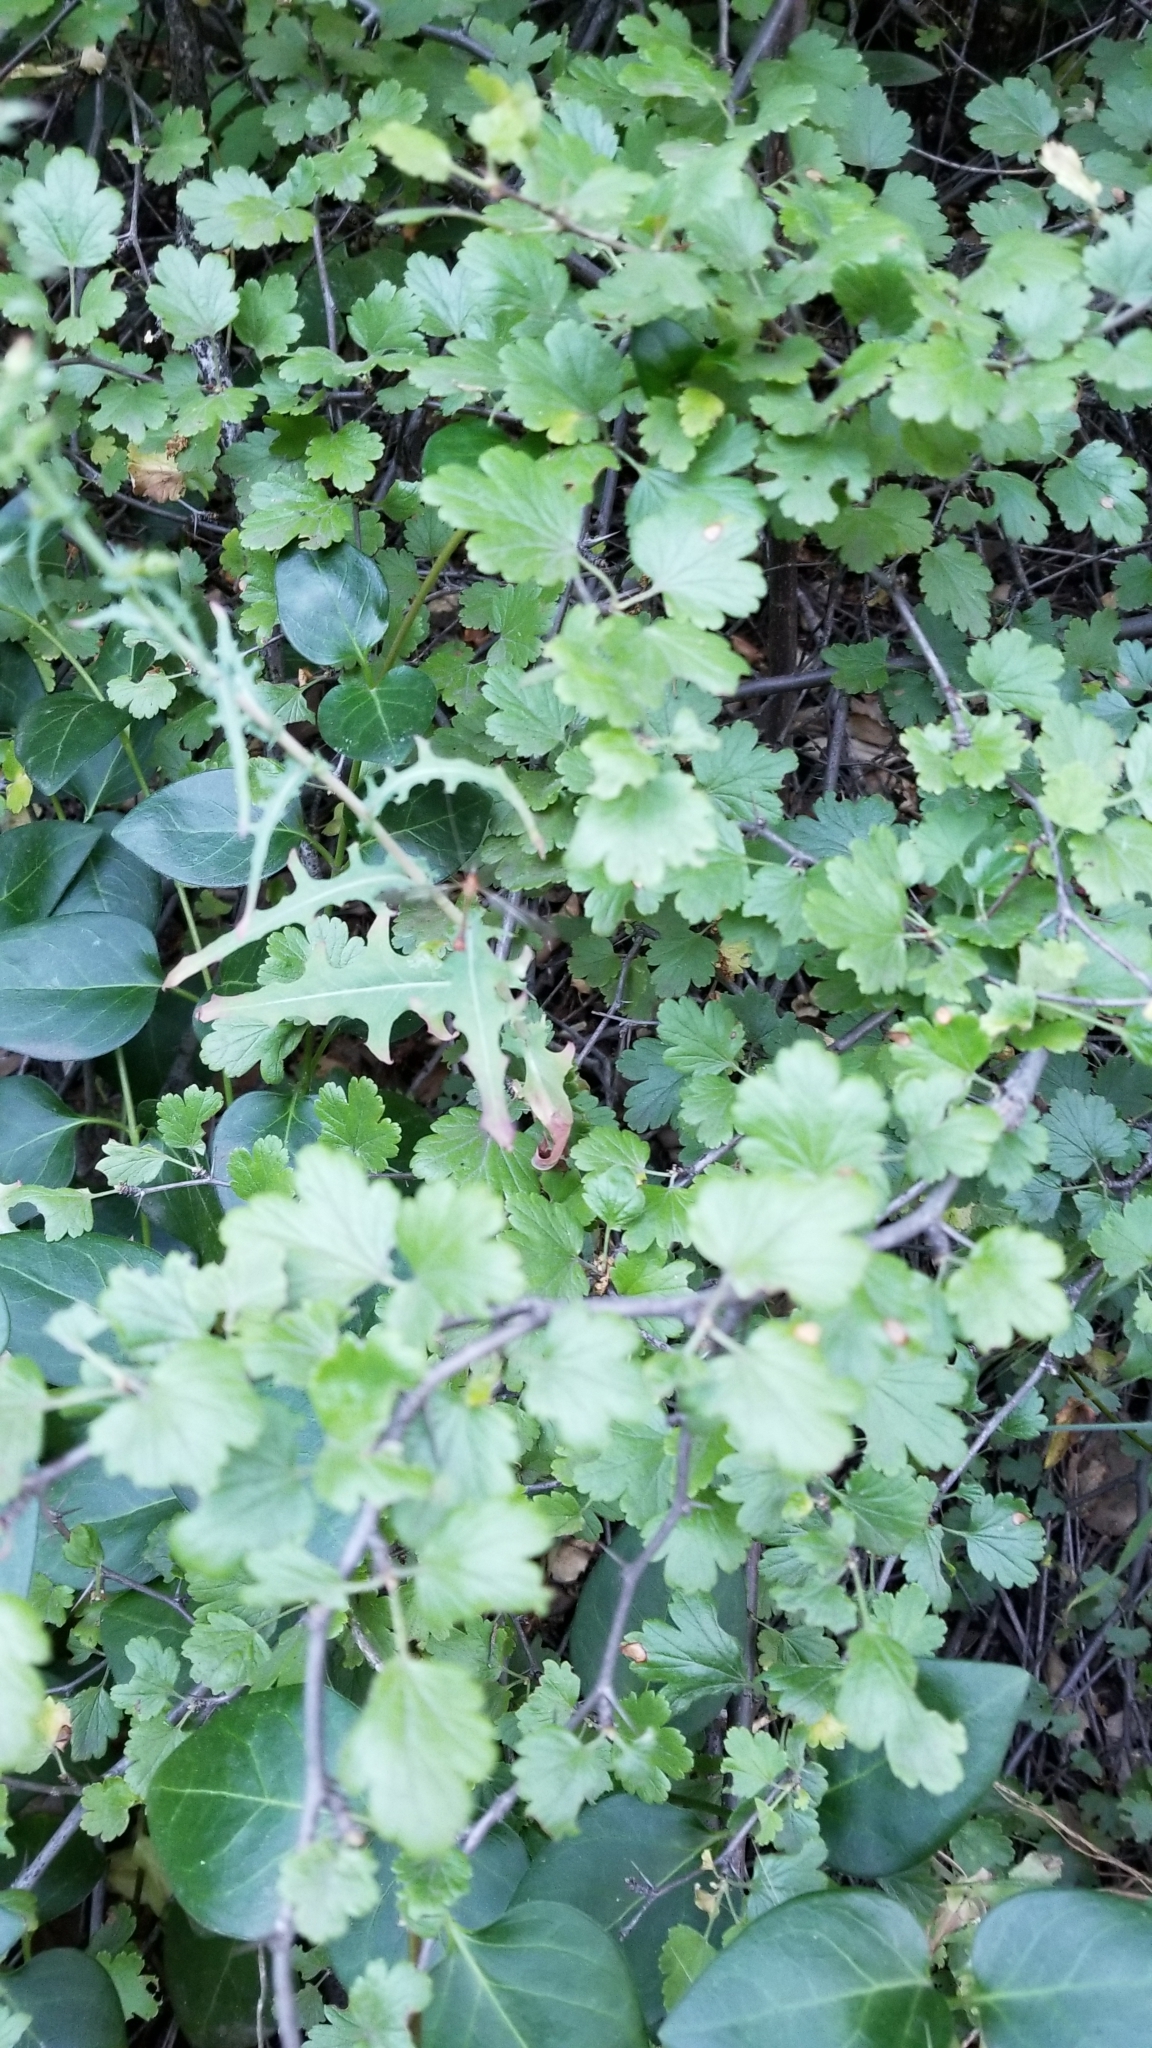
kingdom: Plantae
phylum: Tracheophyta
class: Magnoliopsida
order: Saxifragales
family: Grossulariaceae
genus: Ribes
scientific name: Ribes aureum
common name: Golden currant
